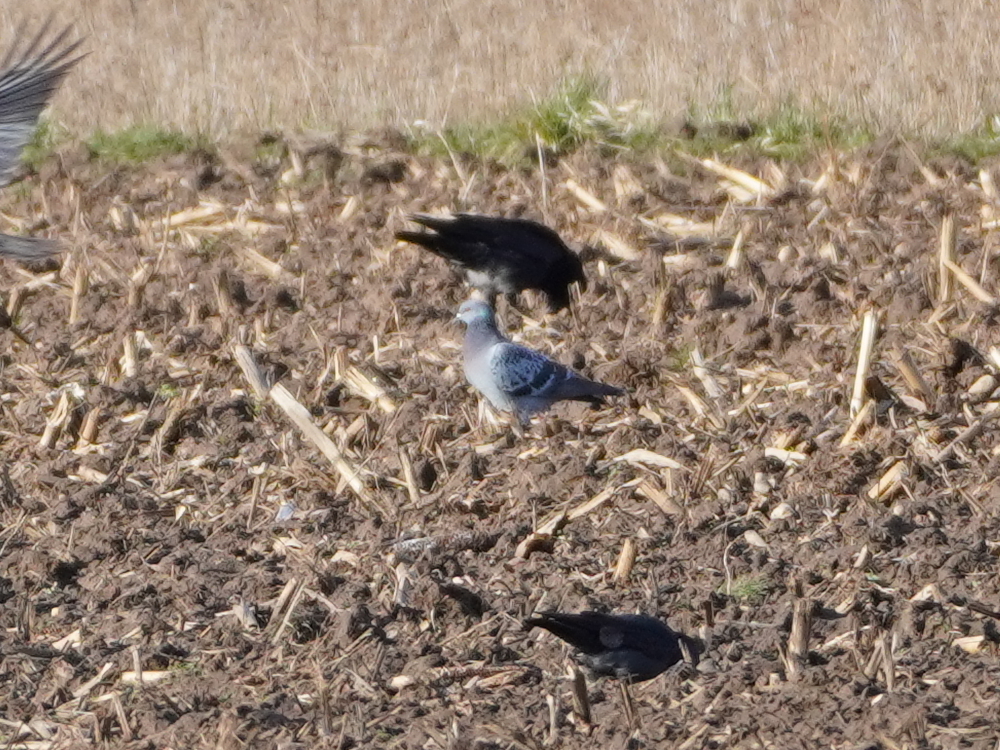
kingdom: Animalia
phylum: Chordata
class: Aves
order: Columbiformes
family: Columbidae
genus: Columba
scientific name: Columba livia
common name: Rock pigeon
